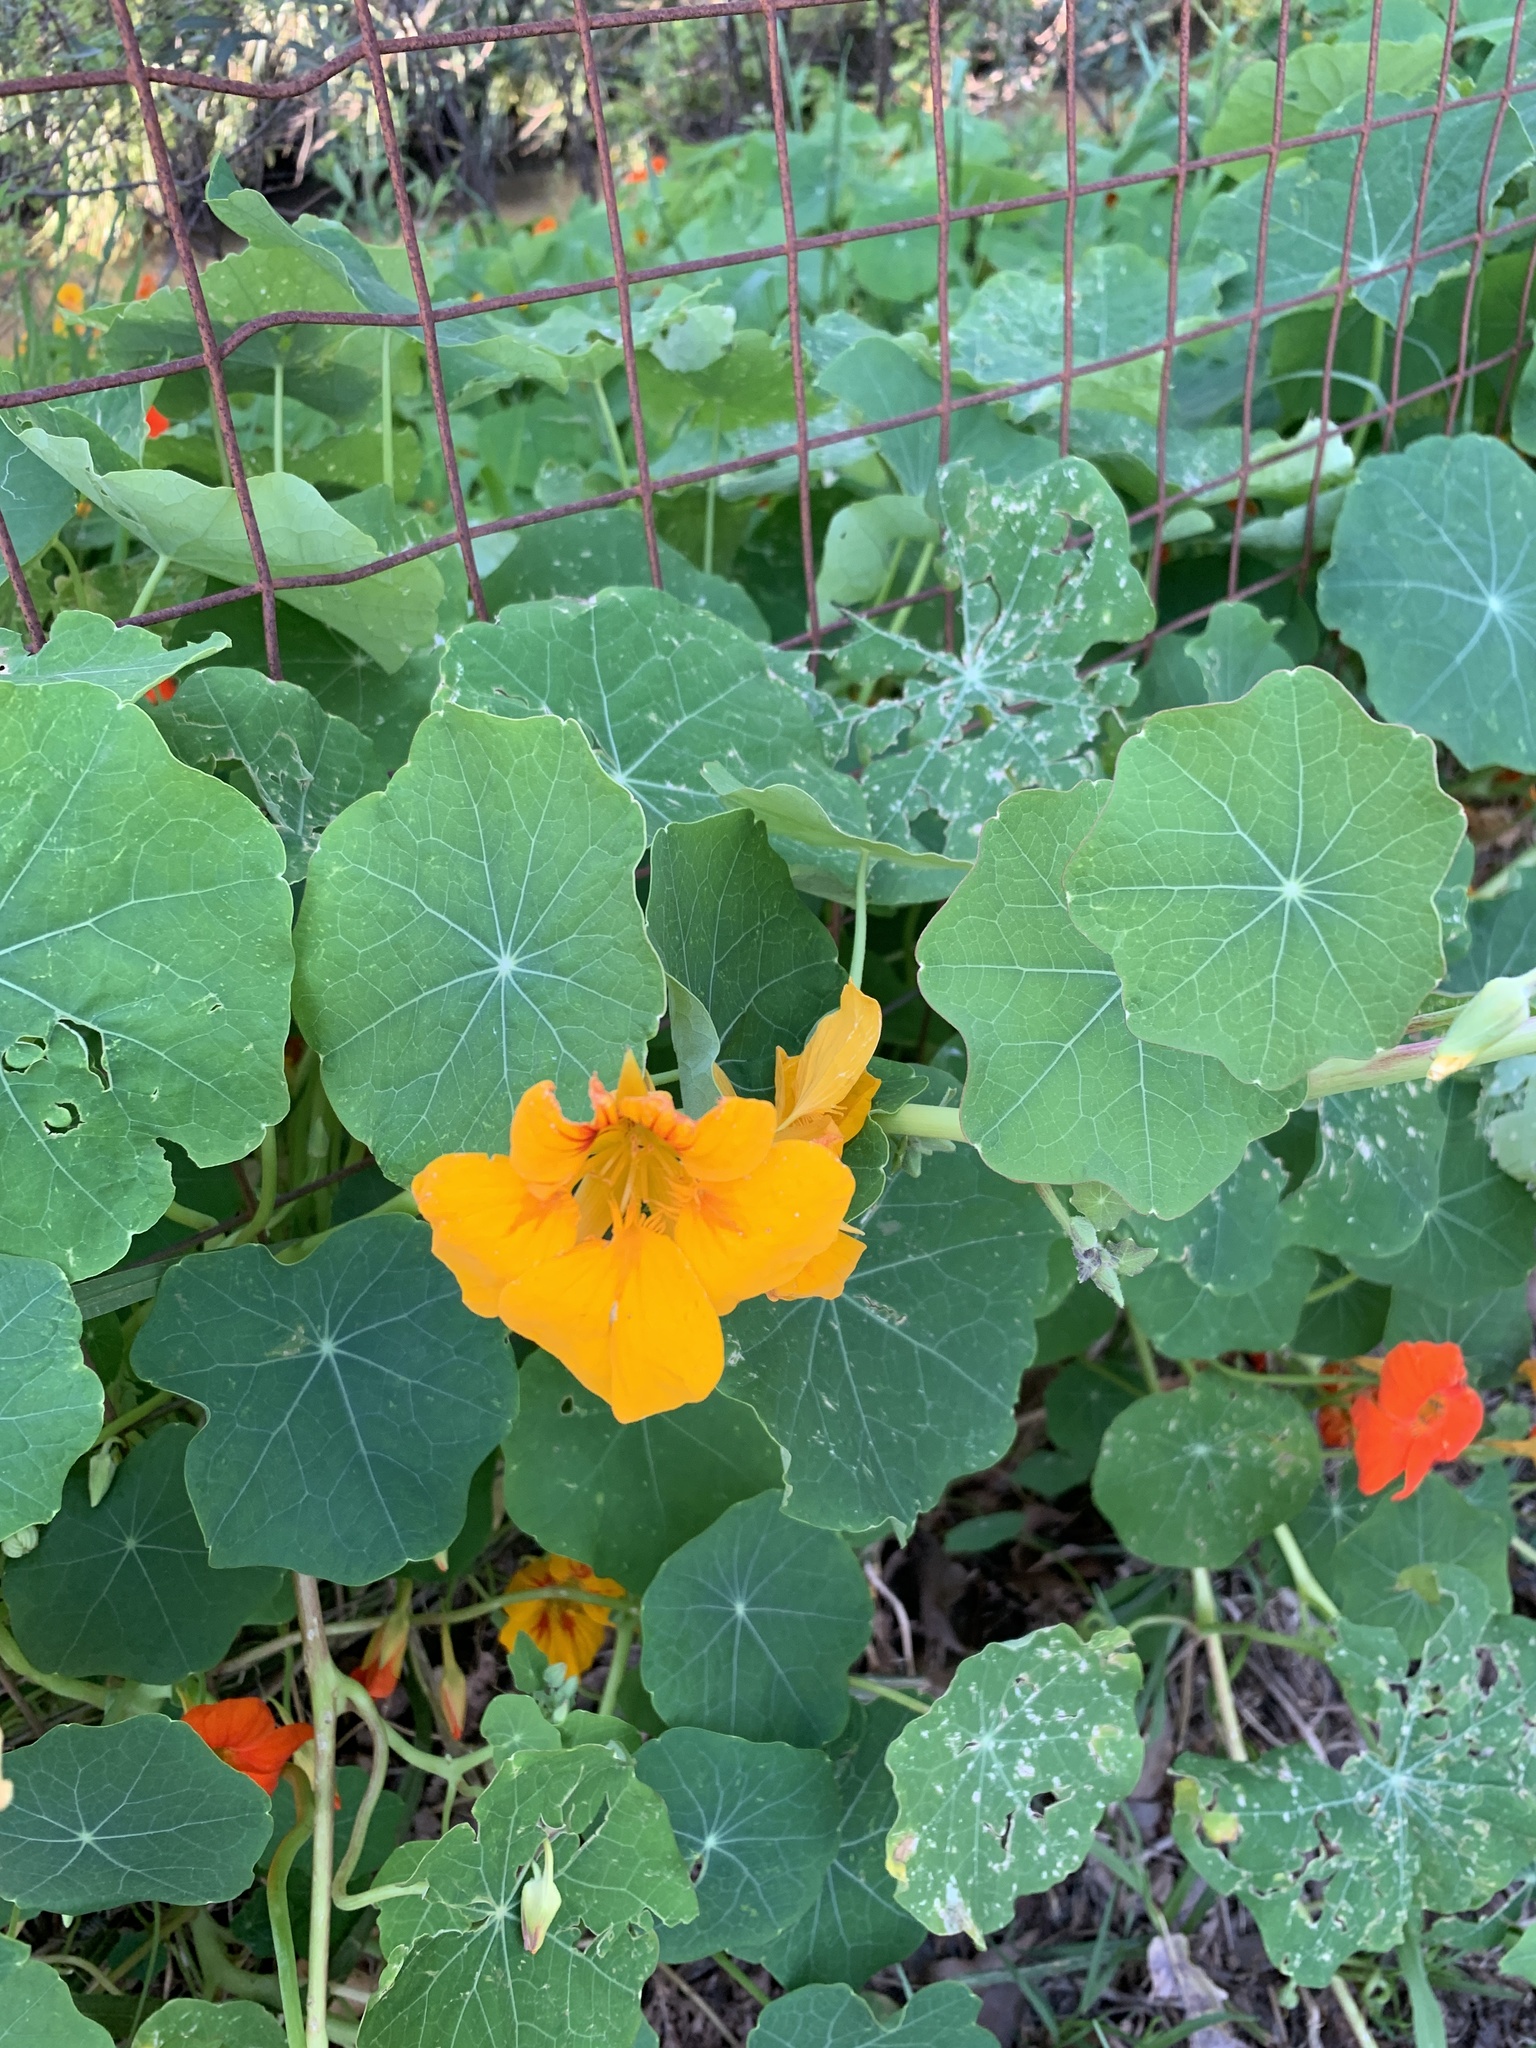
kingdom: Plantae
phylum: Tracheophyta
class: Magnoliopsida
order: Brassicales
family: Tropaeolaceae
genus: Tropaeolum
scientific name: Tropaeolum majus
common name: Nasturtium
